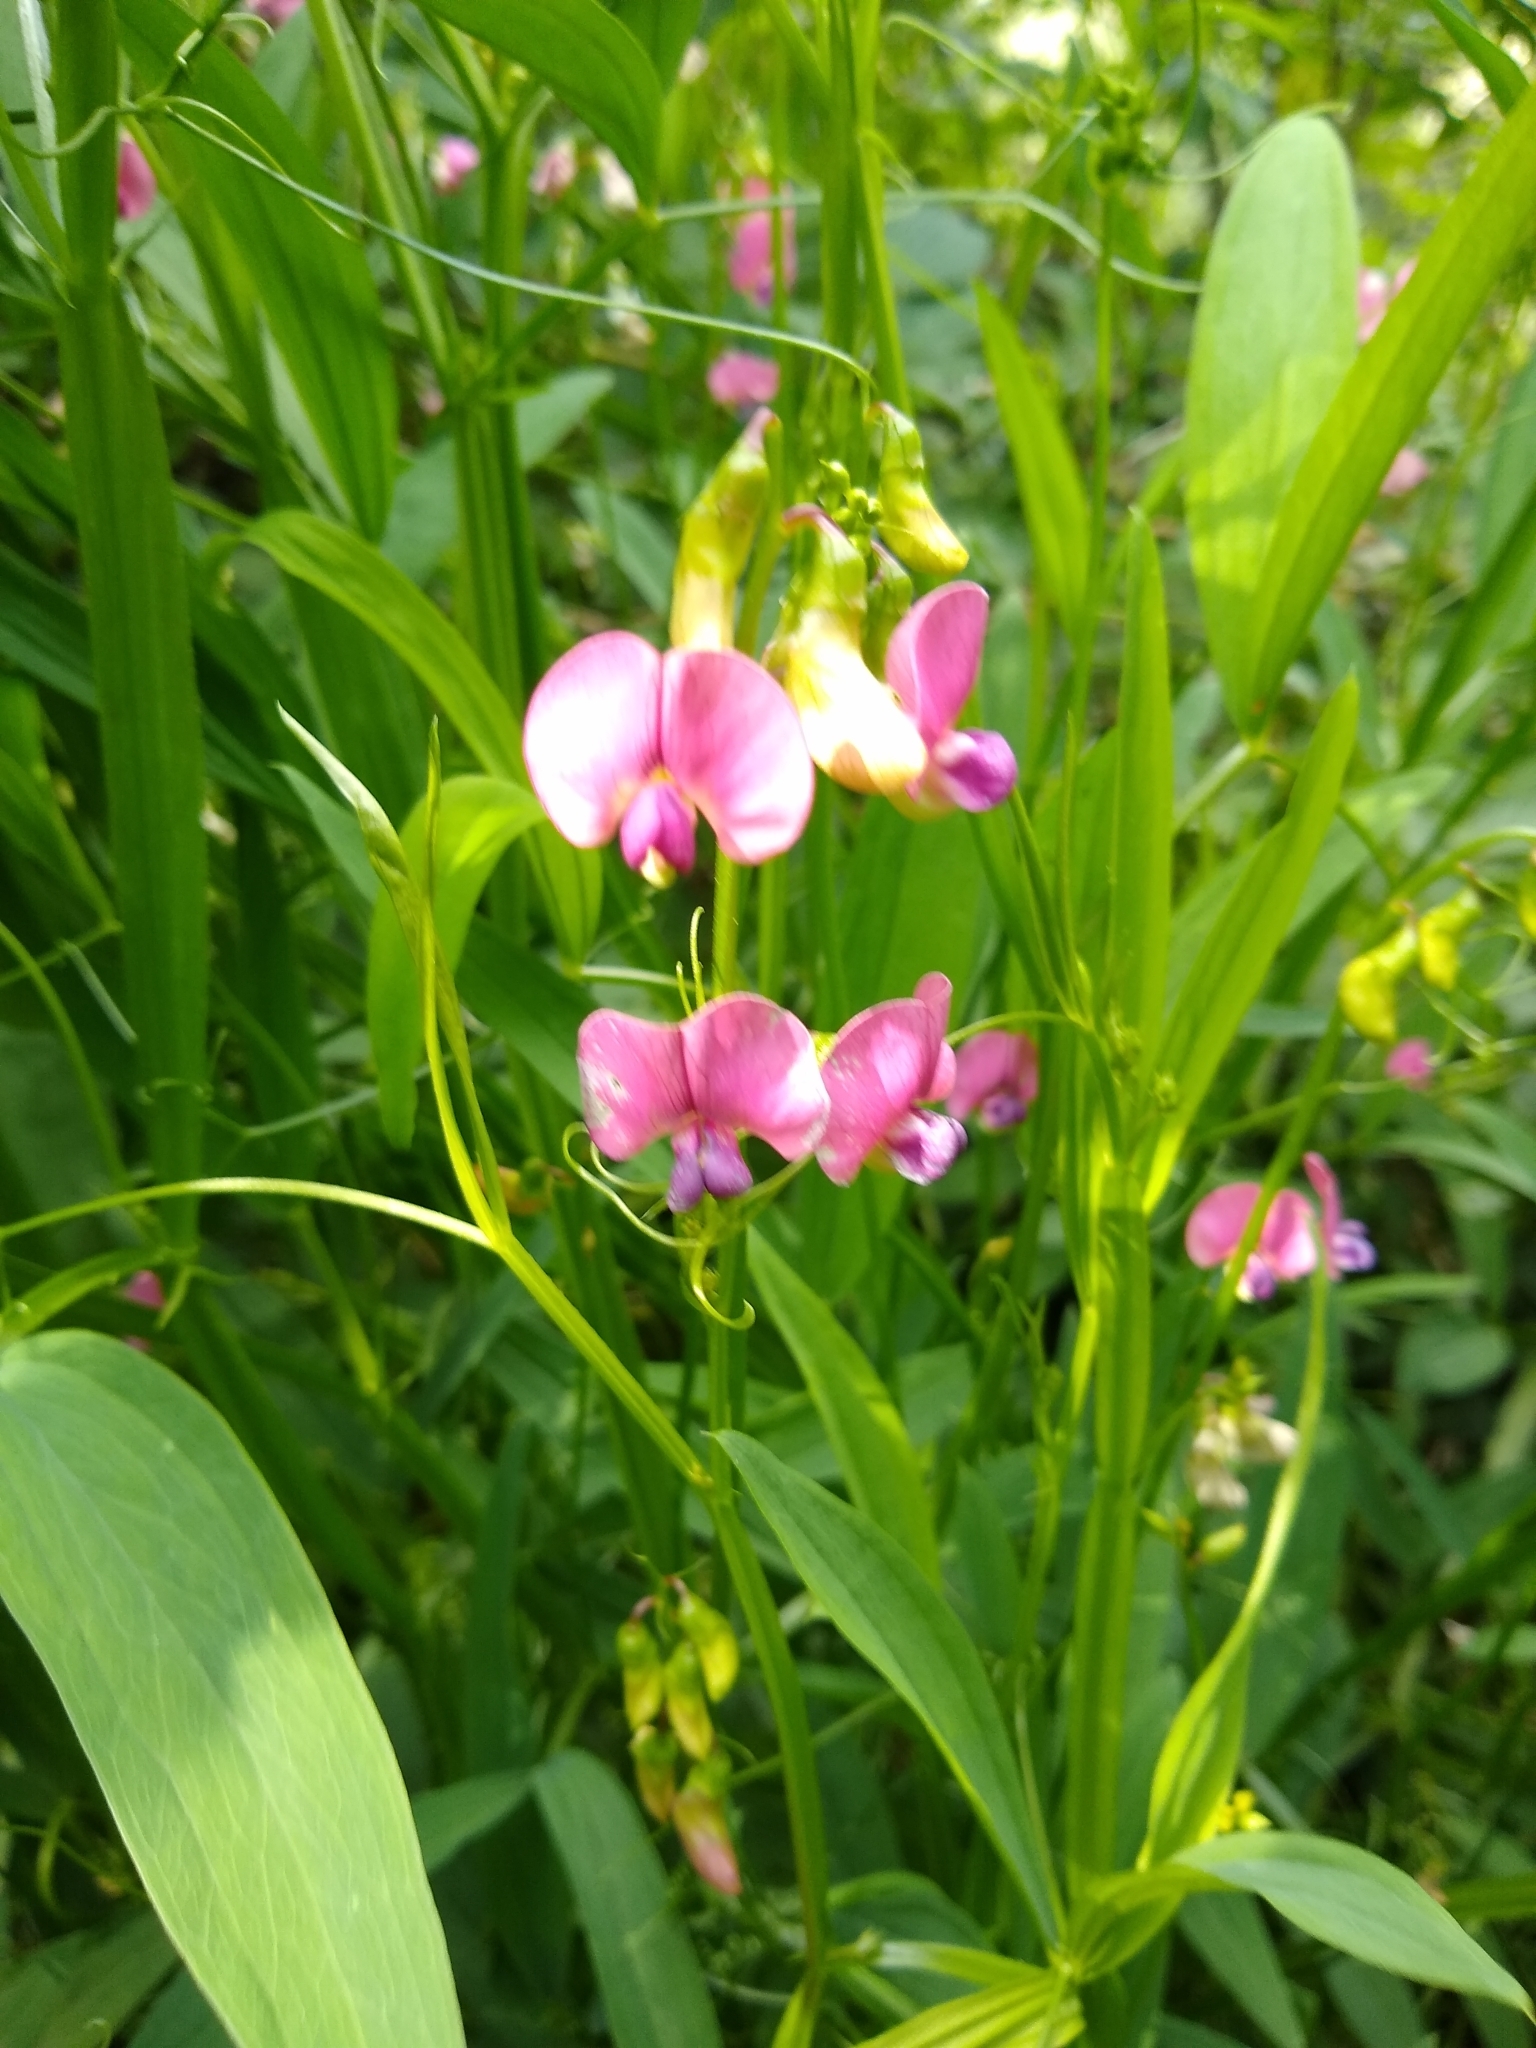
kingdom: Plantae
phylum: Tracheophyta
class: Magnoliopsida
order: Fabales
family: Fabaceae
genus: Lathyrus
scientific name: Lathyrus sylvestris
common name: Flat pea
